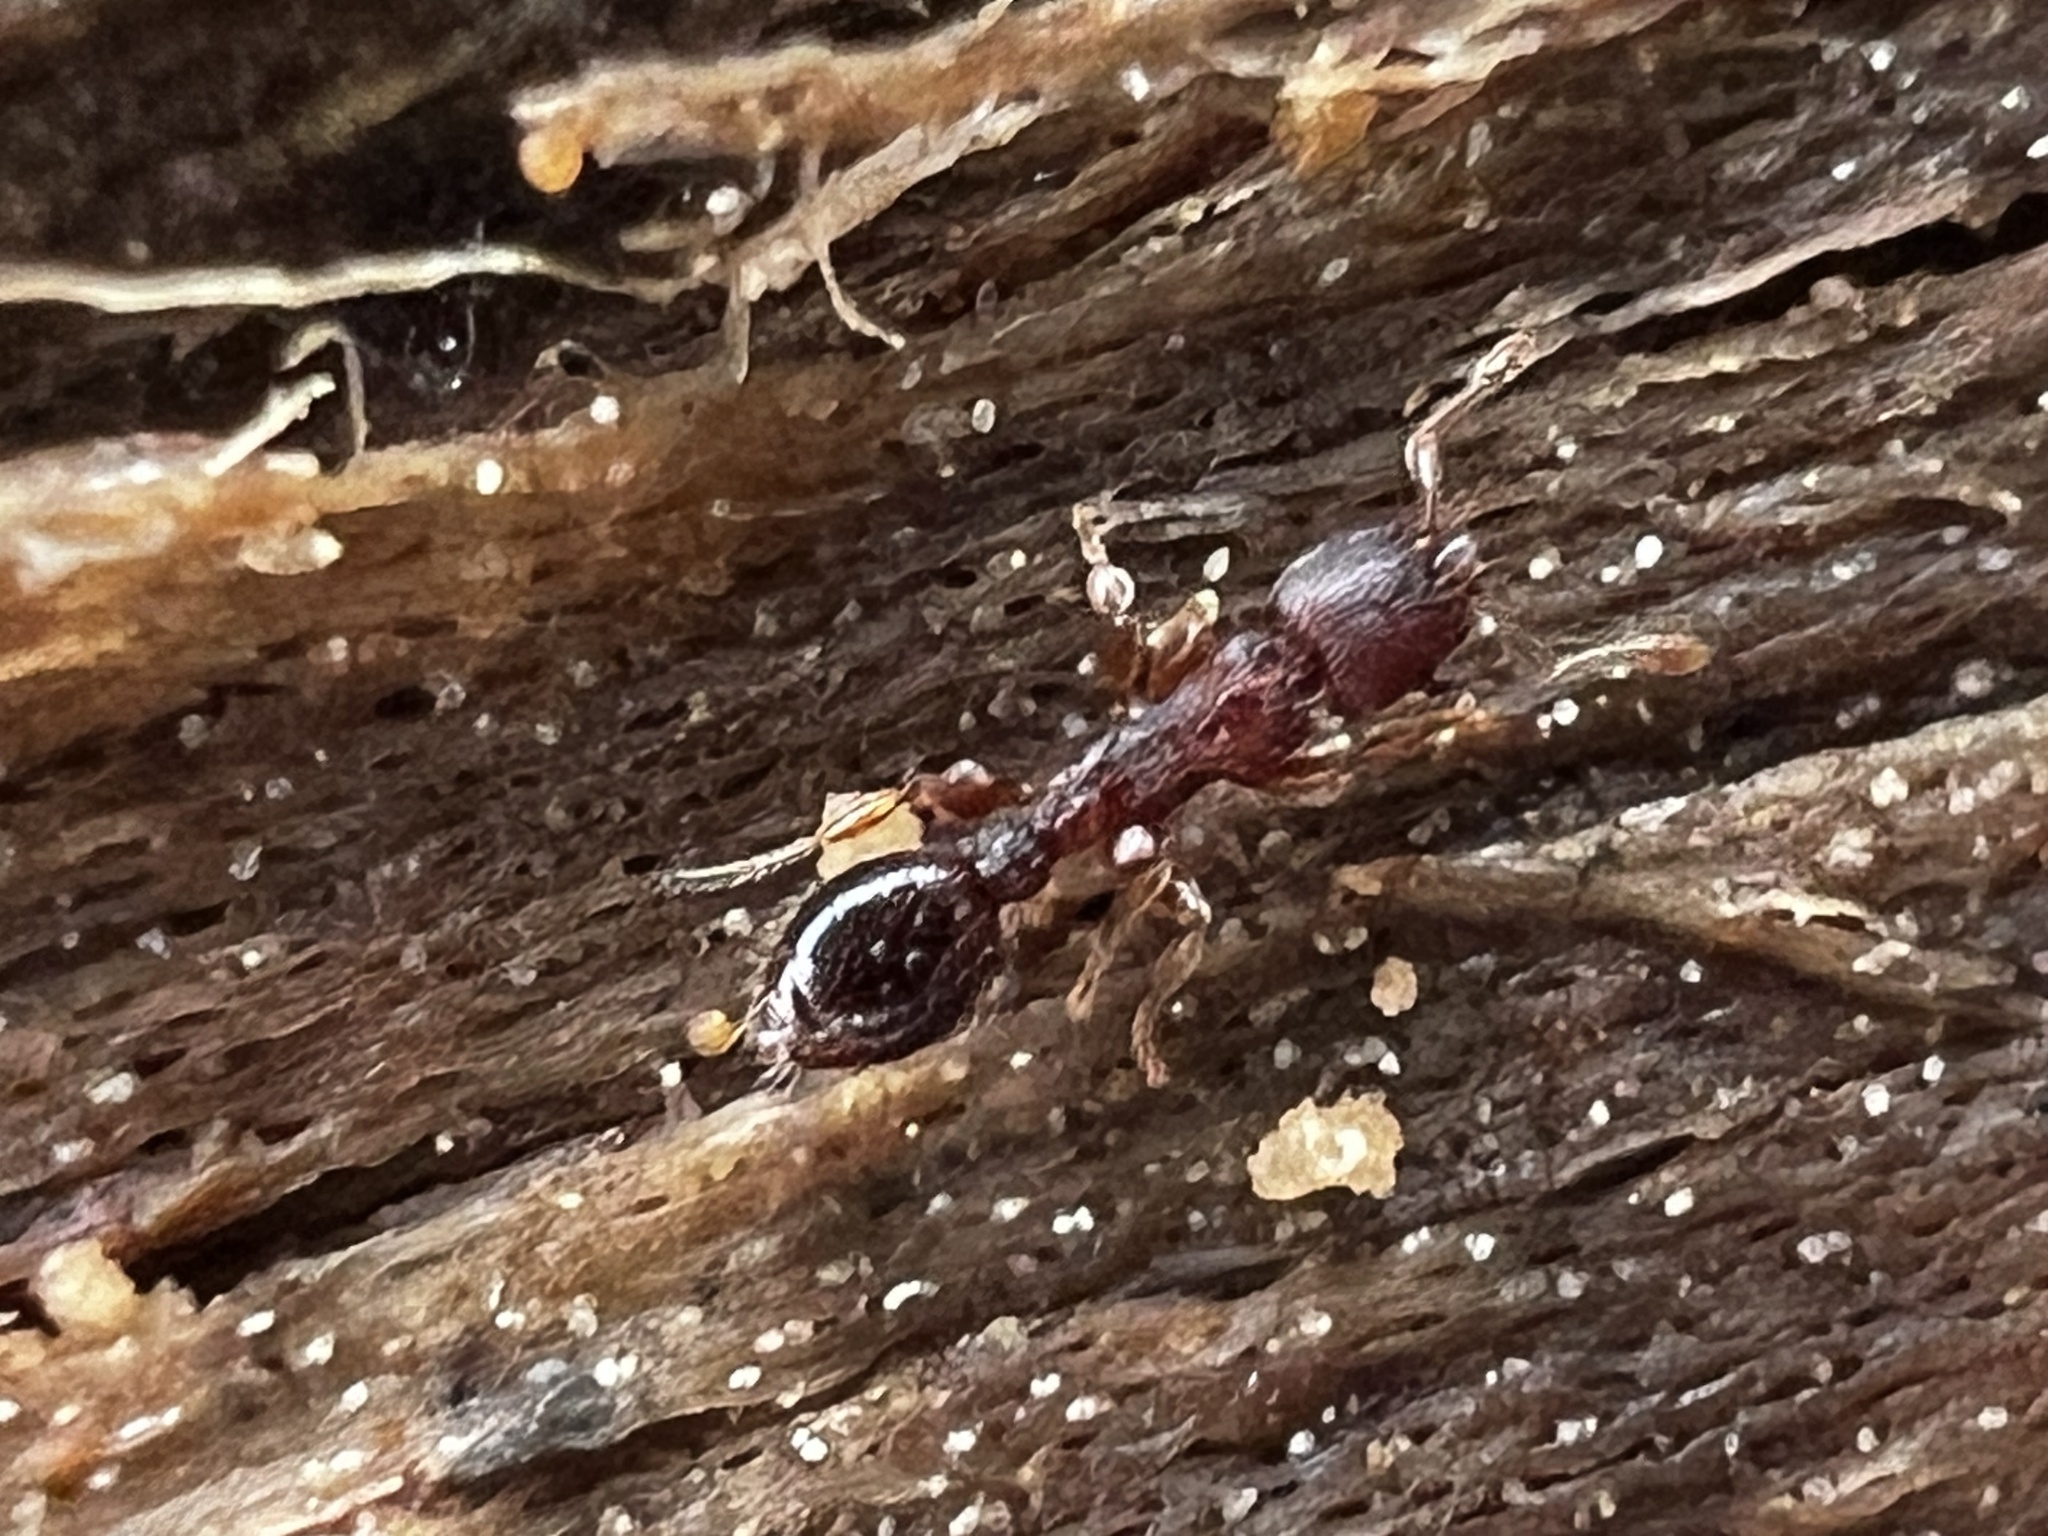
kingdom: Animalia
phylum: Arthropoda
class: Insecta
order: Hymenoptera
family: Formicidae
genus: Vollenhovia
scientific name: Vollenhovia emeryi
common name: Ant
